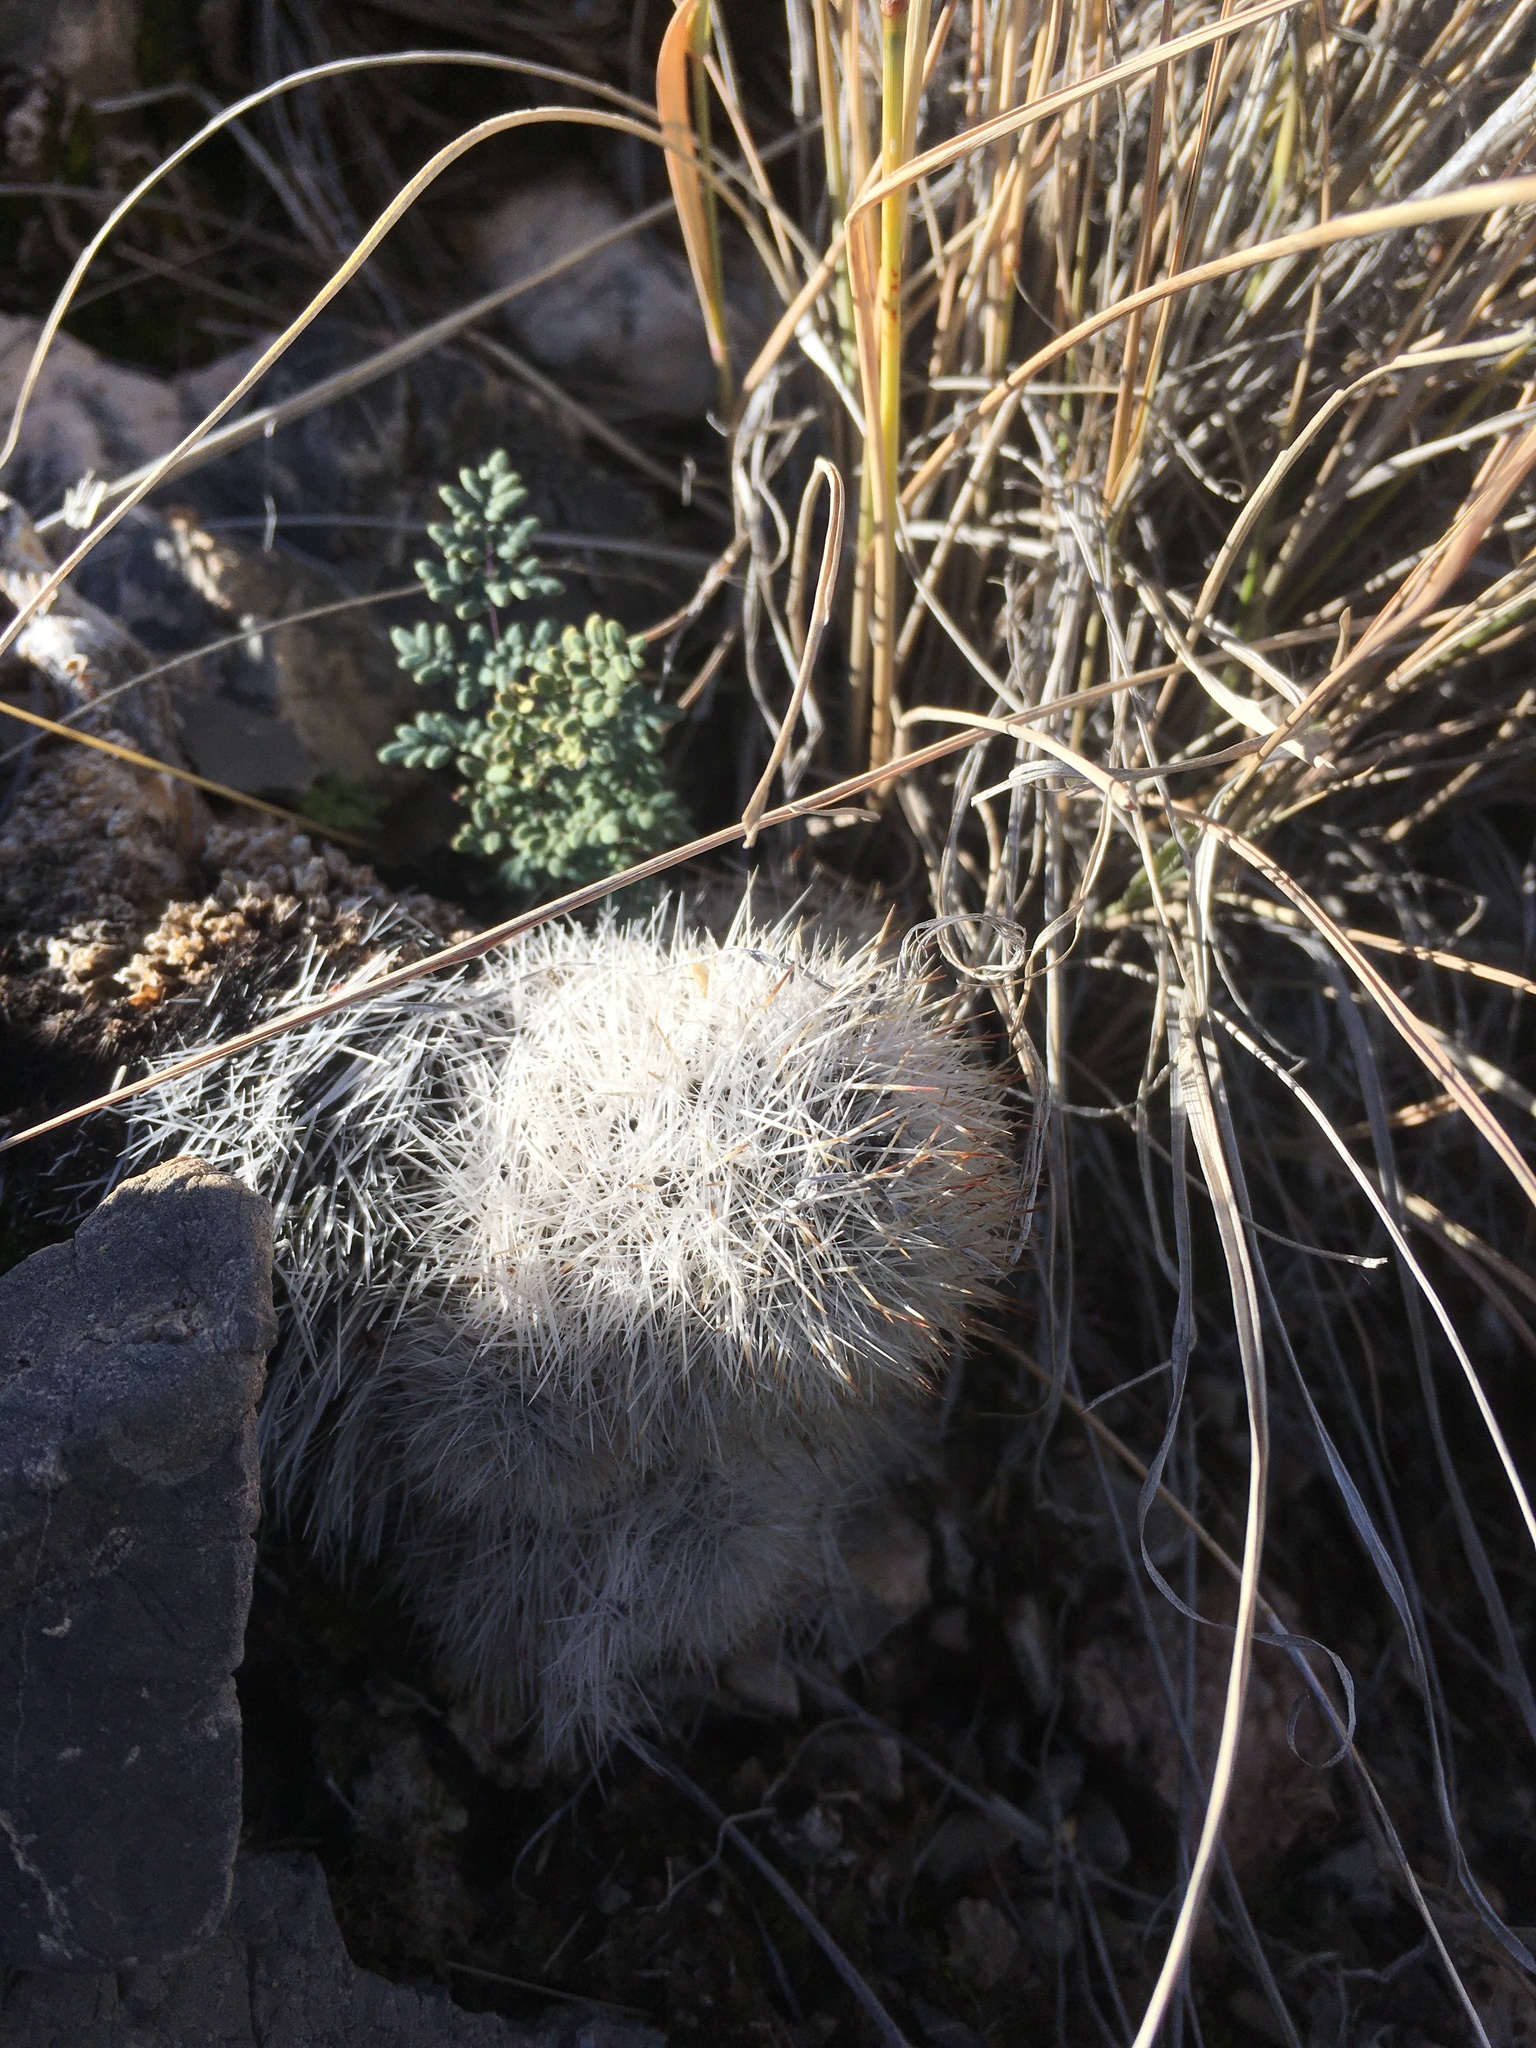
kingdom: Plantae
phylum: Tracheophyta
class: Magnoliopsida
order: Caryophyllales
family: Cactaceae
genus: Pelecyphora
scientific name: Pelecyphora sneedii
